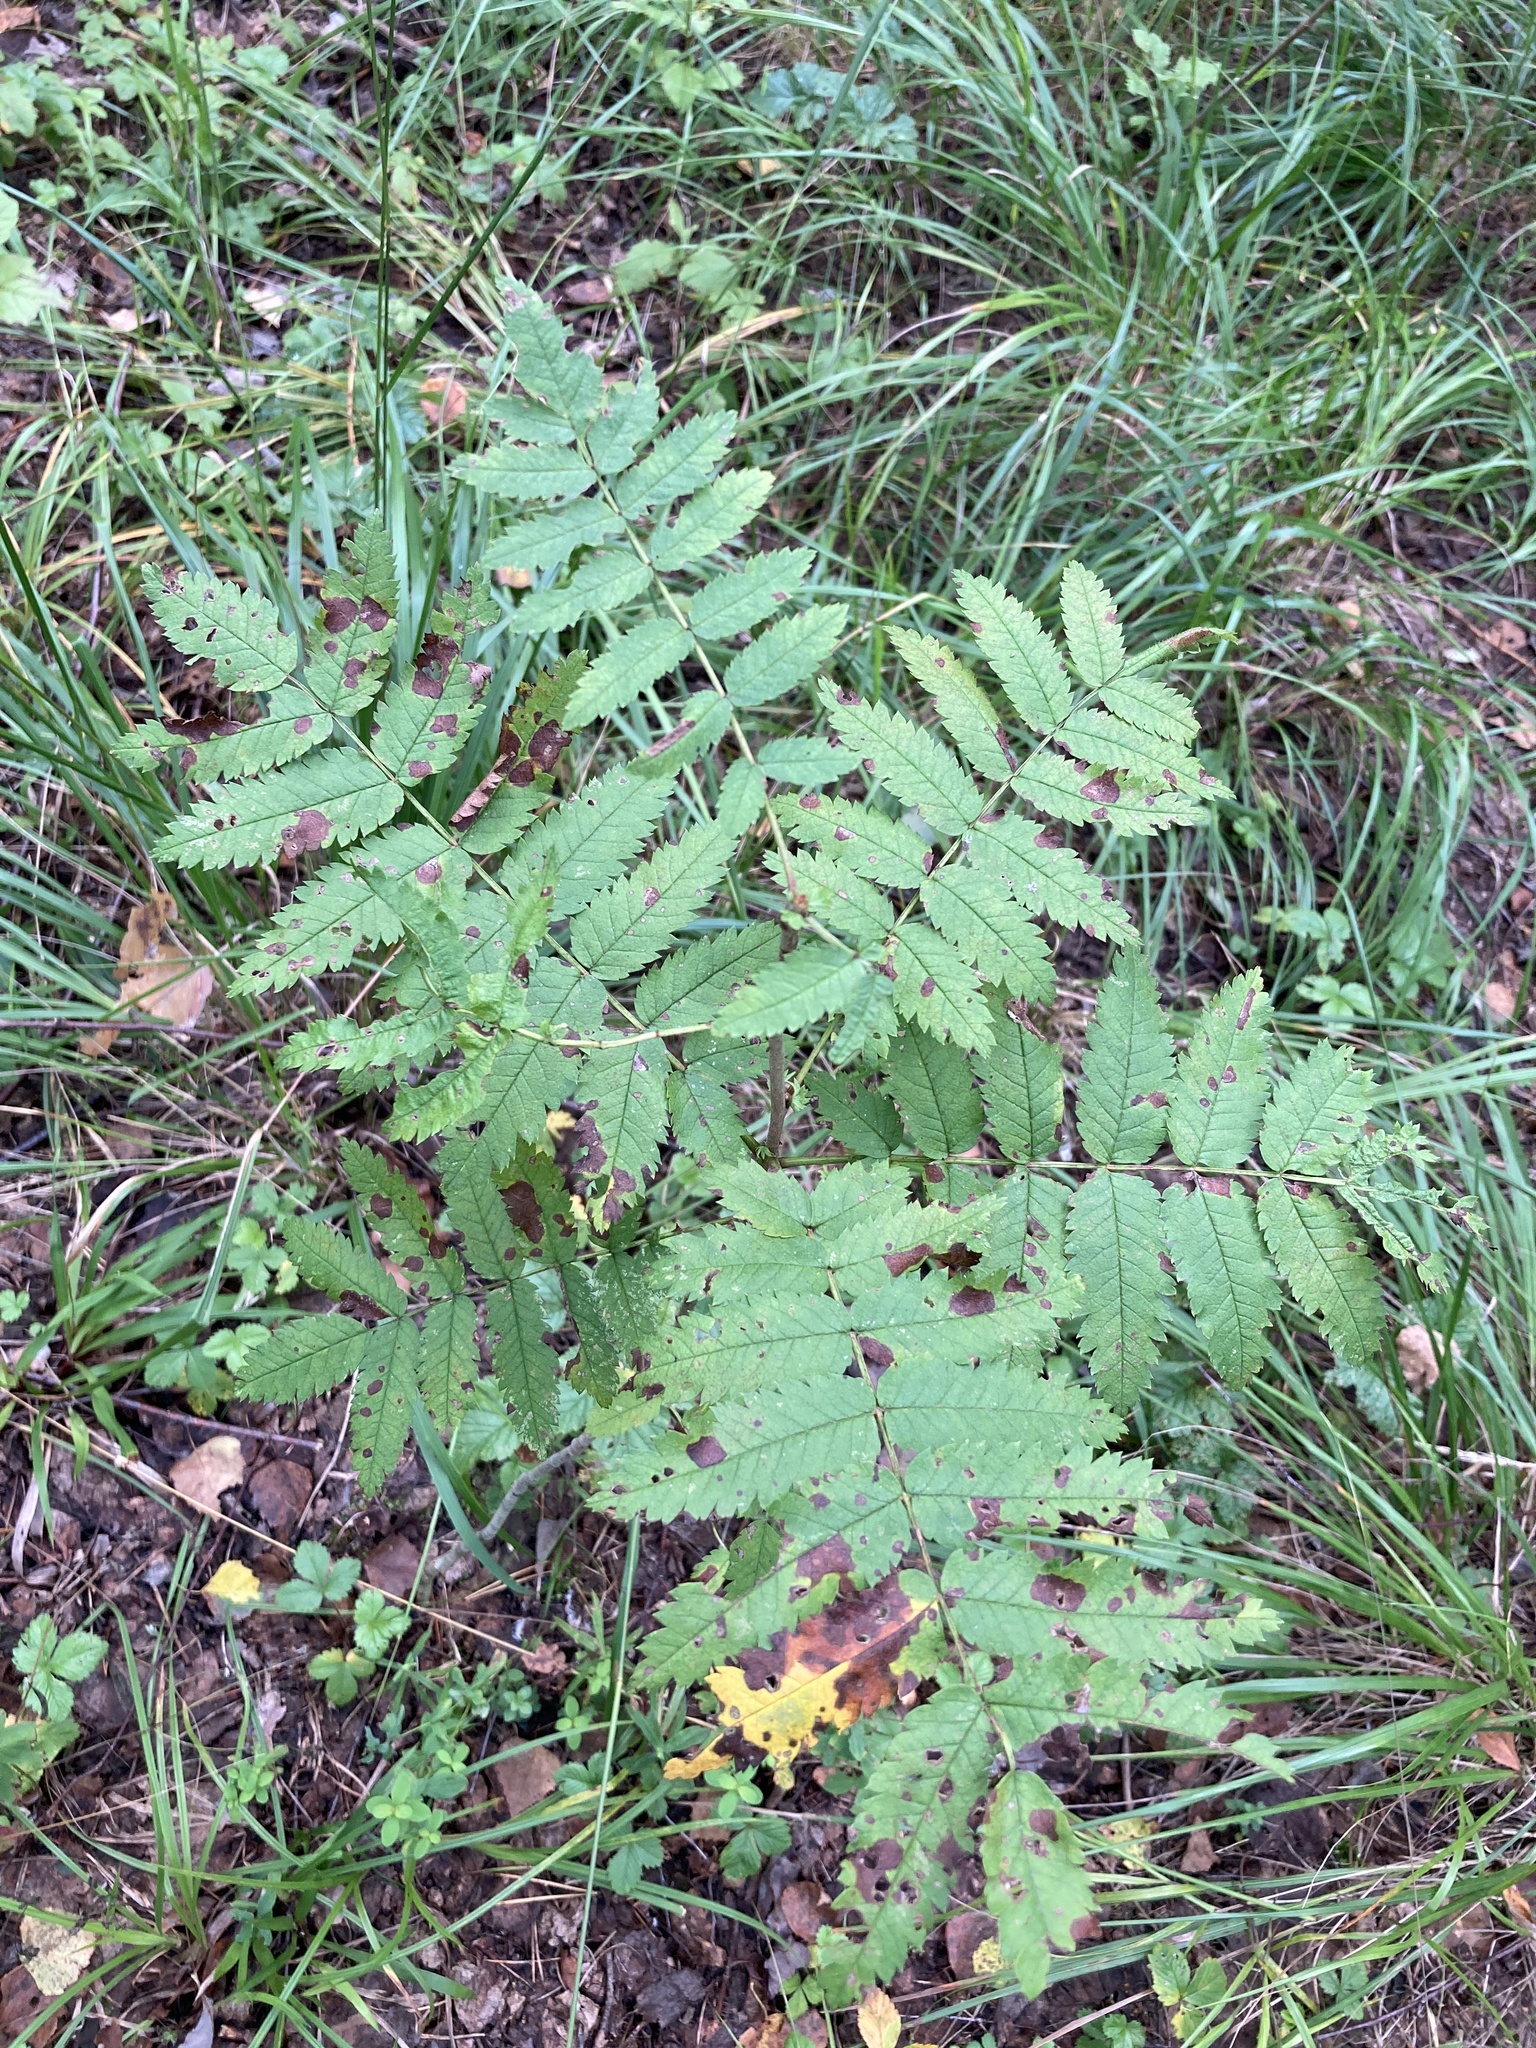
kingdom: Plantae
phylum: Tracheophyta
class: Magnoliopsida
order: Rosales
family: Rosaceae
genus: Sorbus
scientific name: Sorbus aucuparia
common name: Rowan
